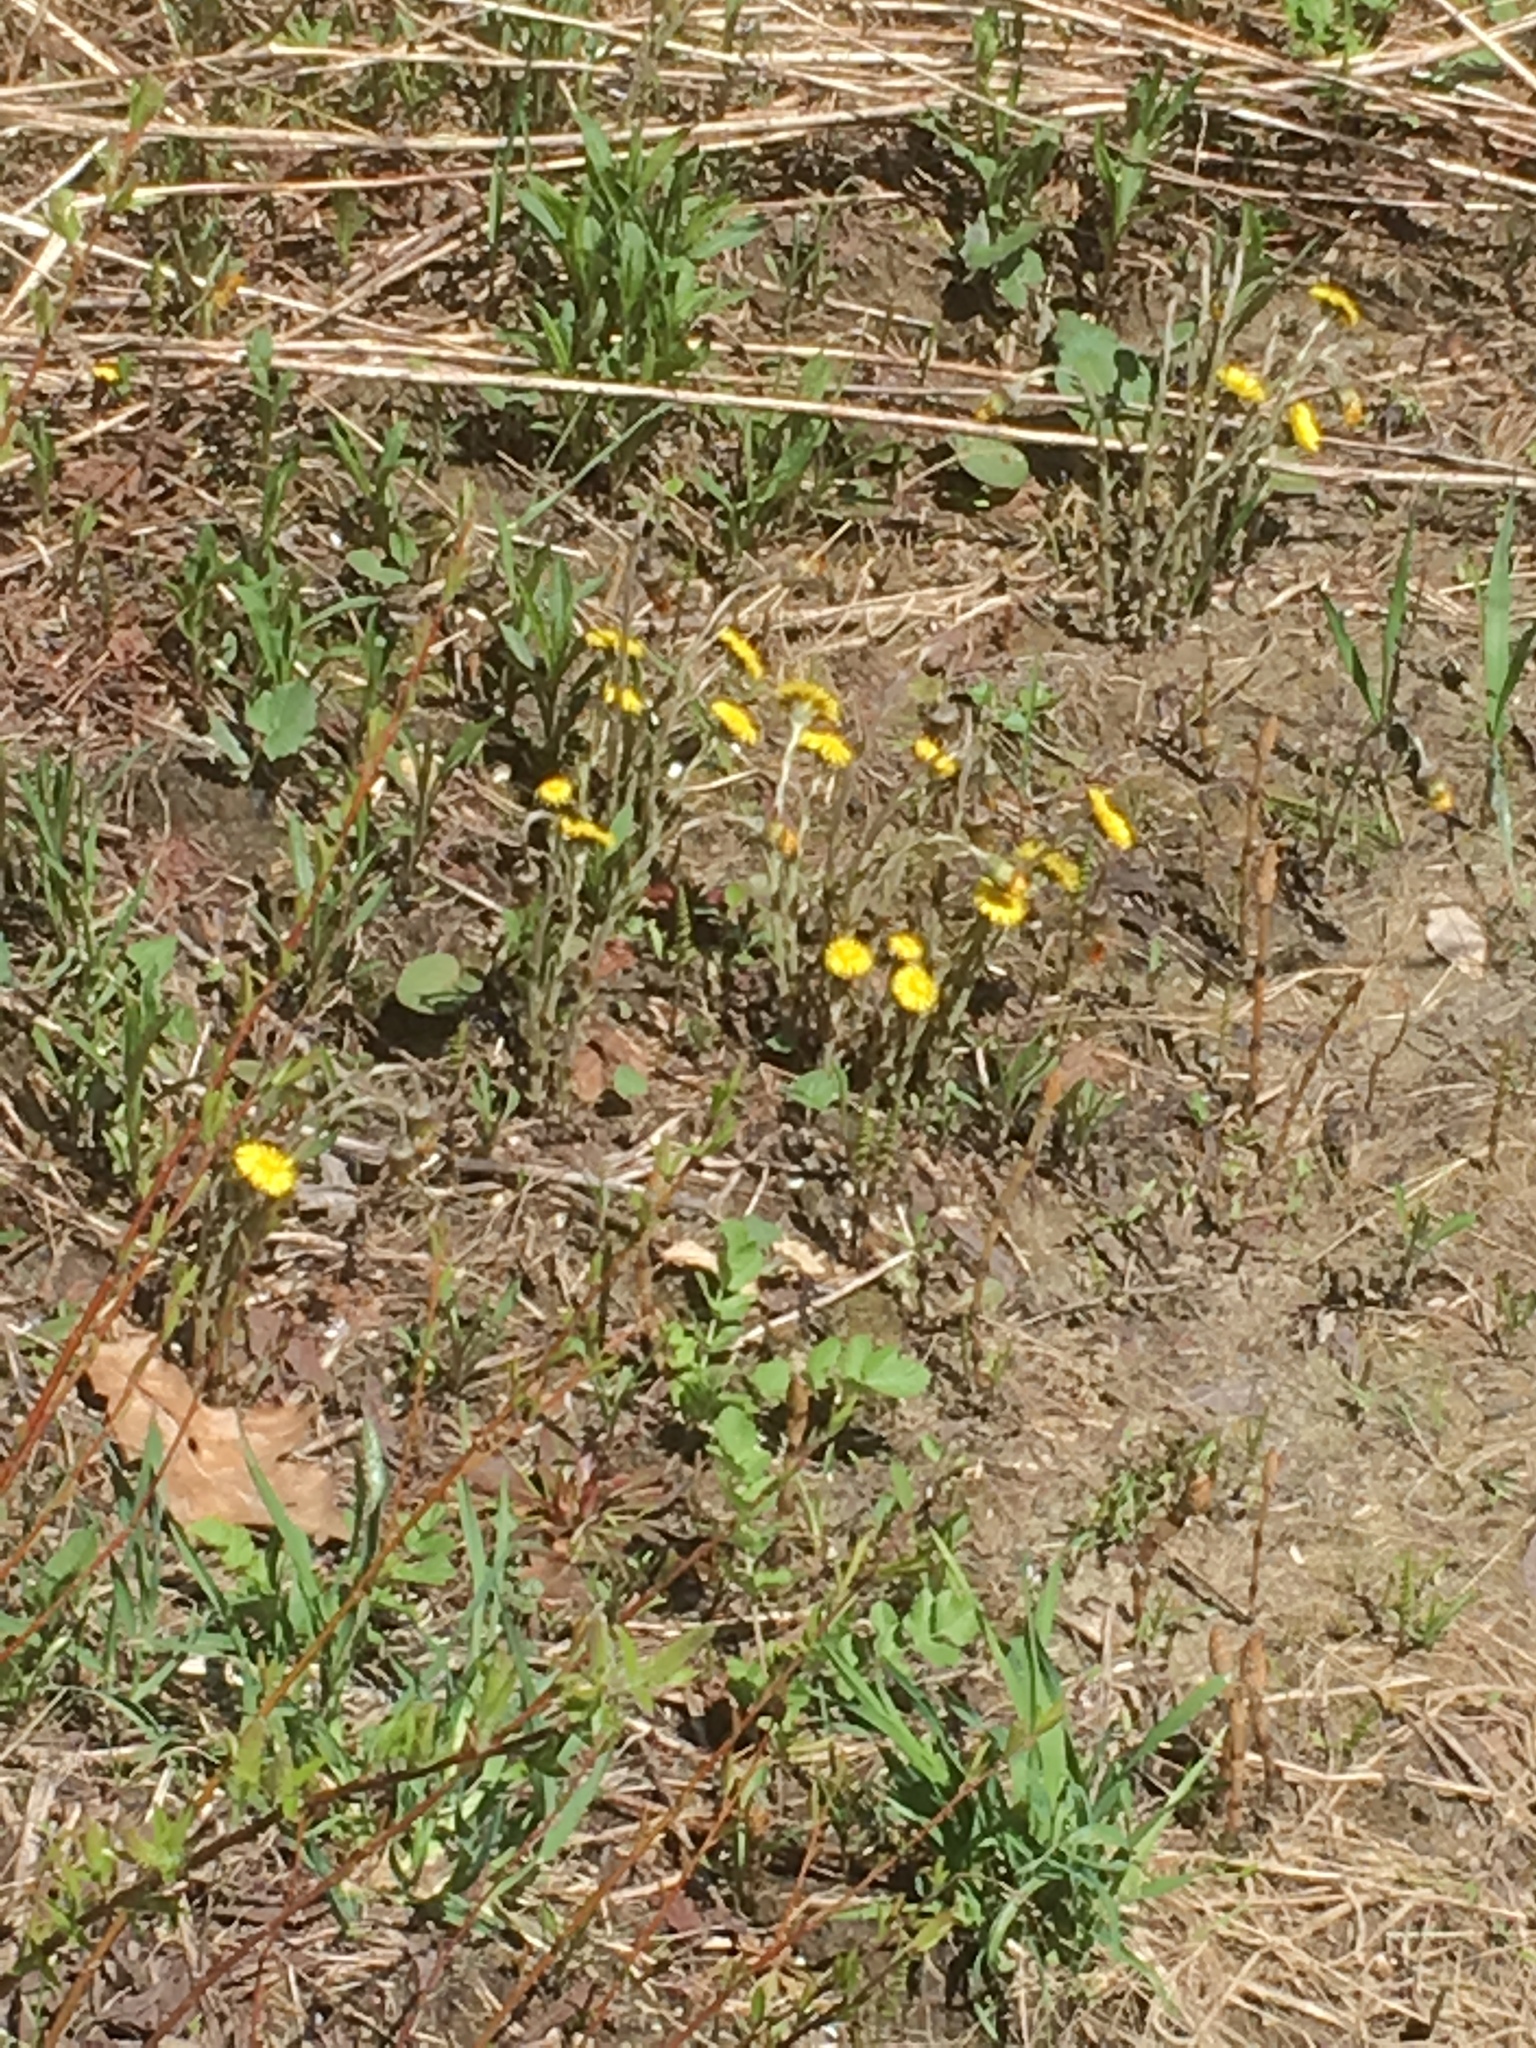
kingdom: Plantae
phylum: Tracheophyta
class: Magnoliopsida
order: Asterales
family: Asteraceae
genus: Tussilago
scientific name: Tussilago farfara
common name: Coltsfoot
